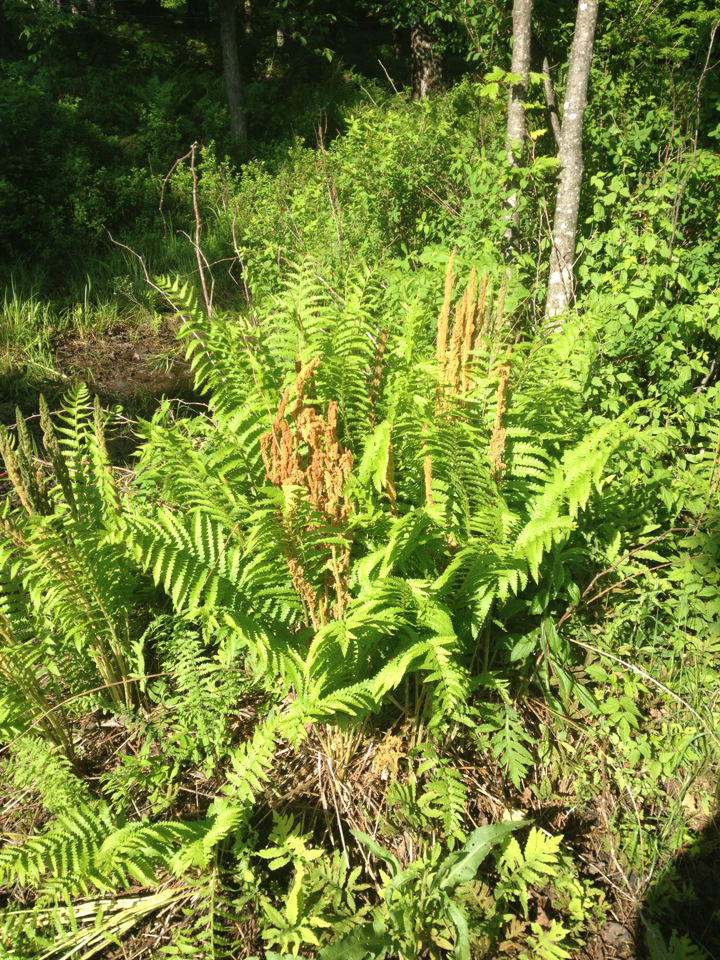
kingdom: Plantae
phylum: Tracheophyta
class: Polypodiopsida
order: Osmundales
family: Osmundaceae
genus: Osmundastrum
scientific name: Osmundastrum cinnamomeum
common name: Cinnamon fern
